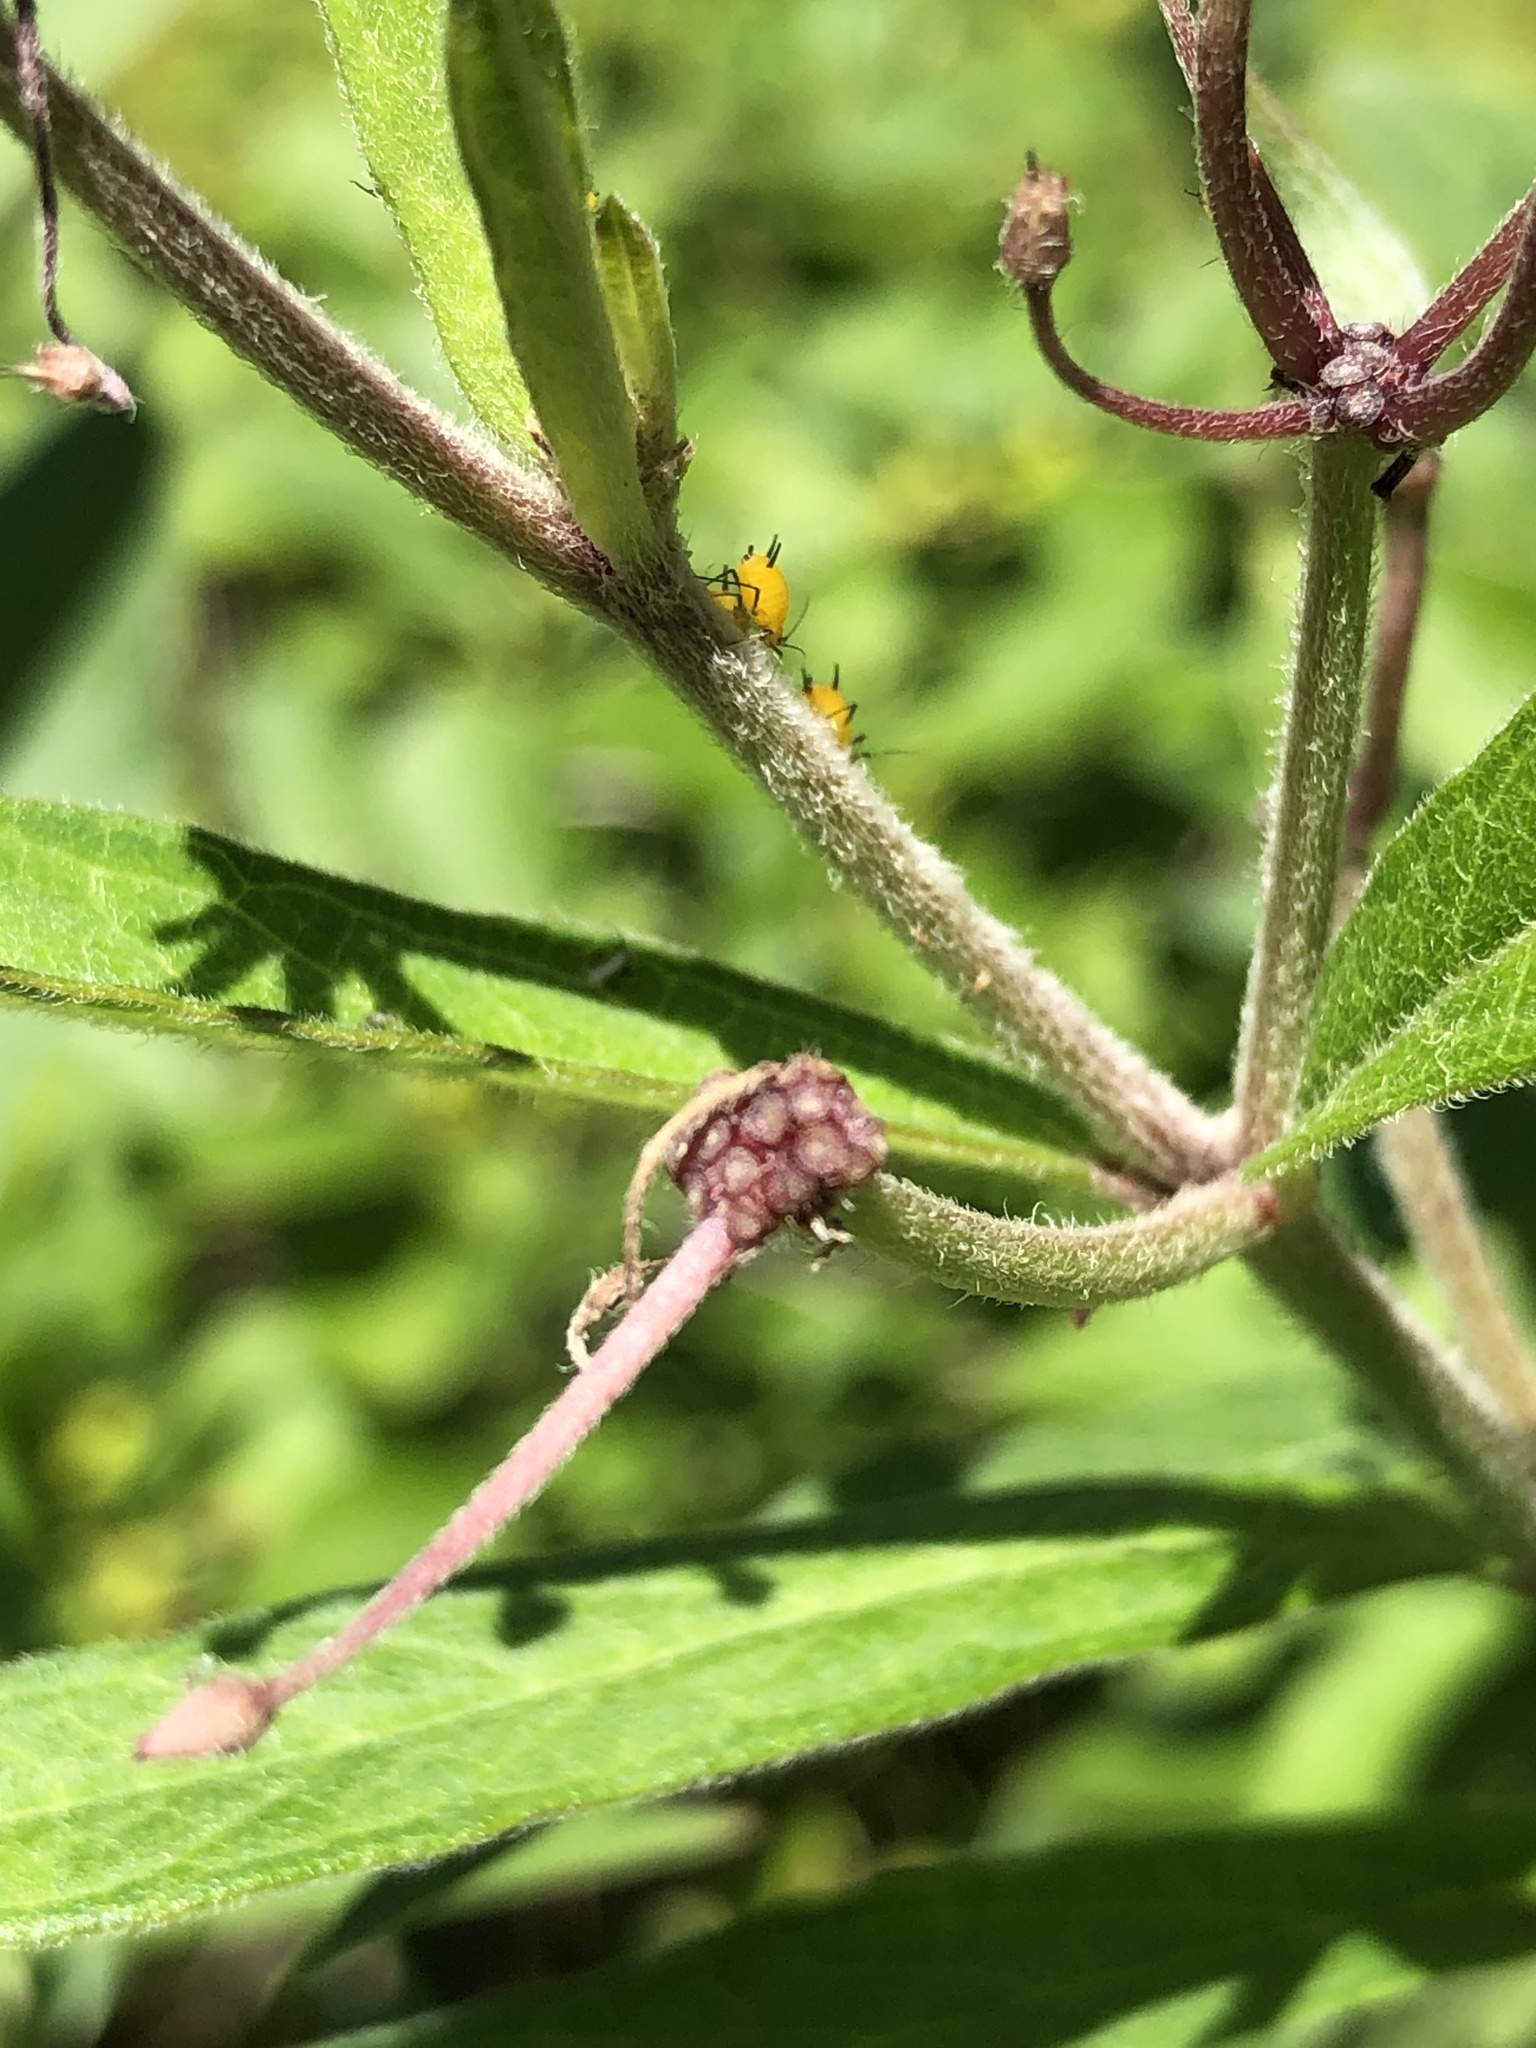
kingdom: Animalia
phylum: Arthropoda
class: Insecta
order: Hemiptera
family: Aphididae
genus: Aphis
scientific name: Aphis nerii
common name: Oleander aphid
